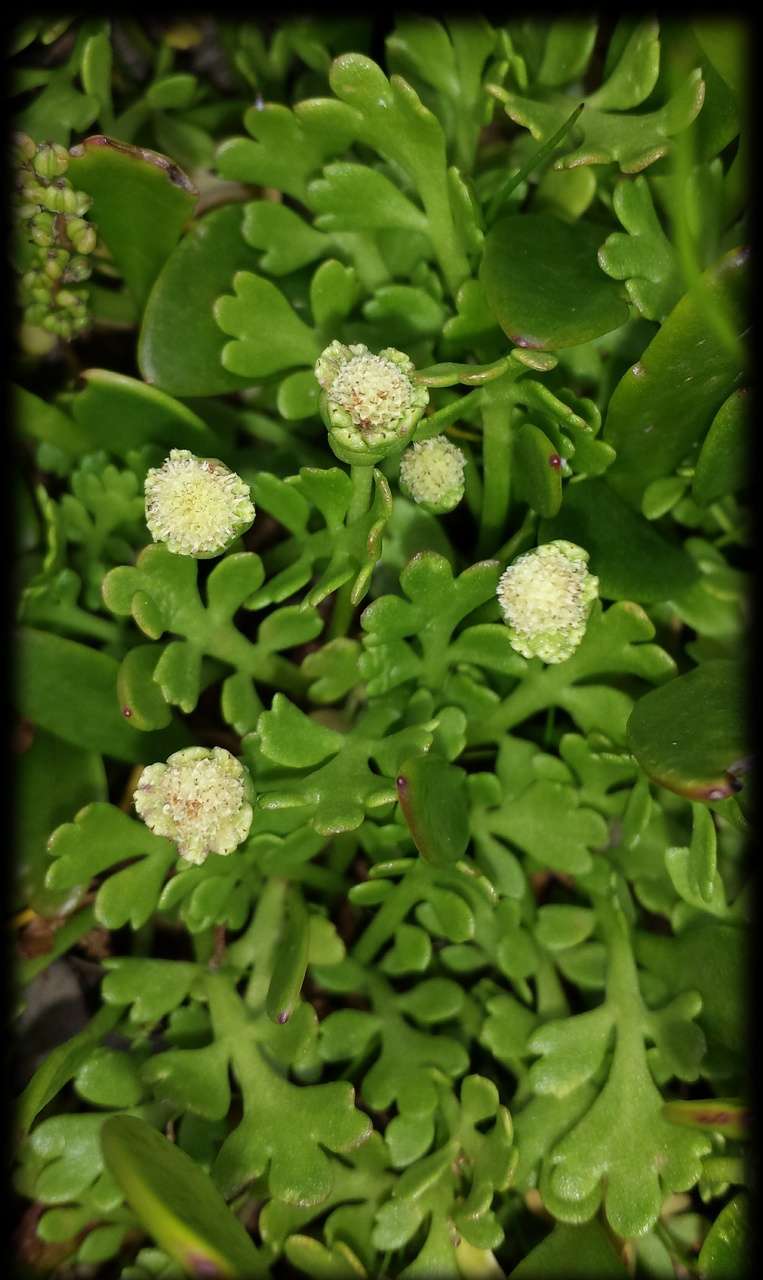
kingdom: Plantae
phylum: Tracheophyta
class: Magnoliopsida
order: Asterales
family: Asteraceae
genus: Leptinella
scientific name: Leptinella longipes
